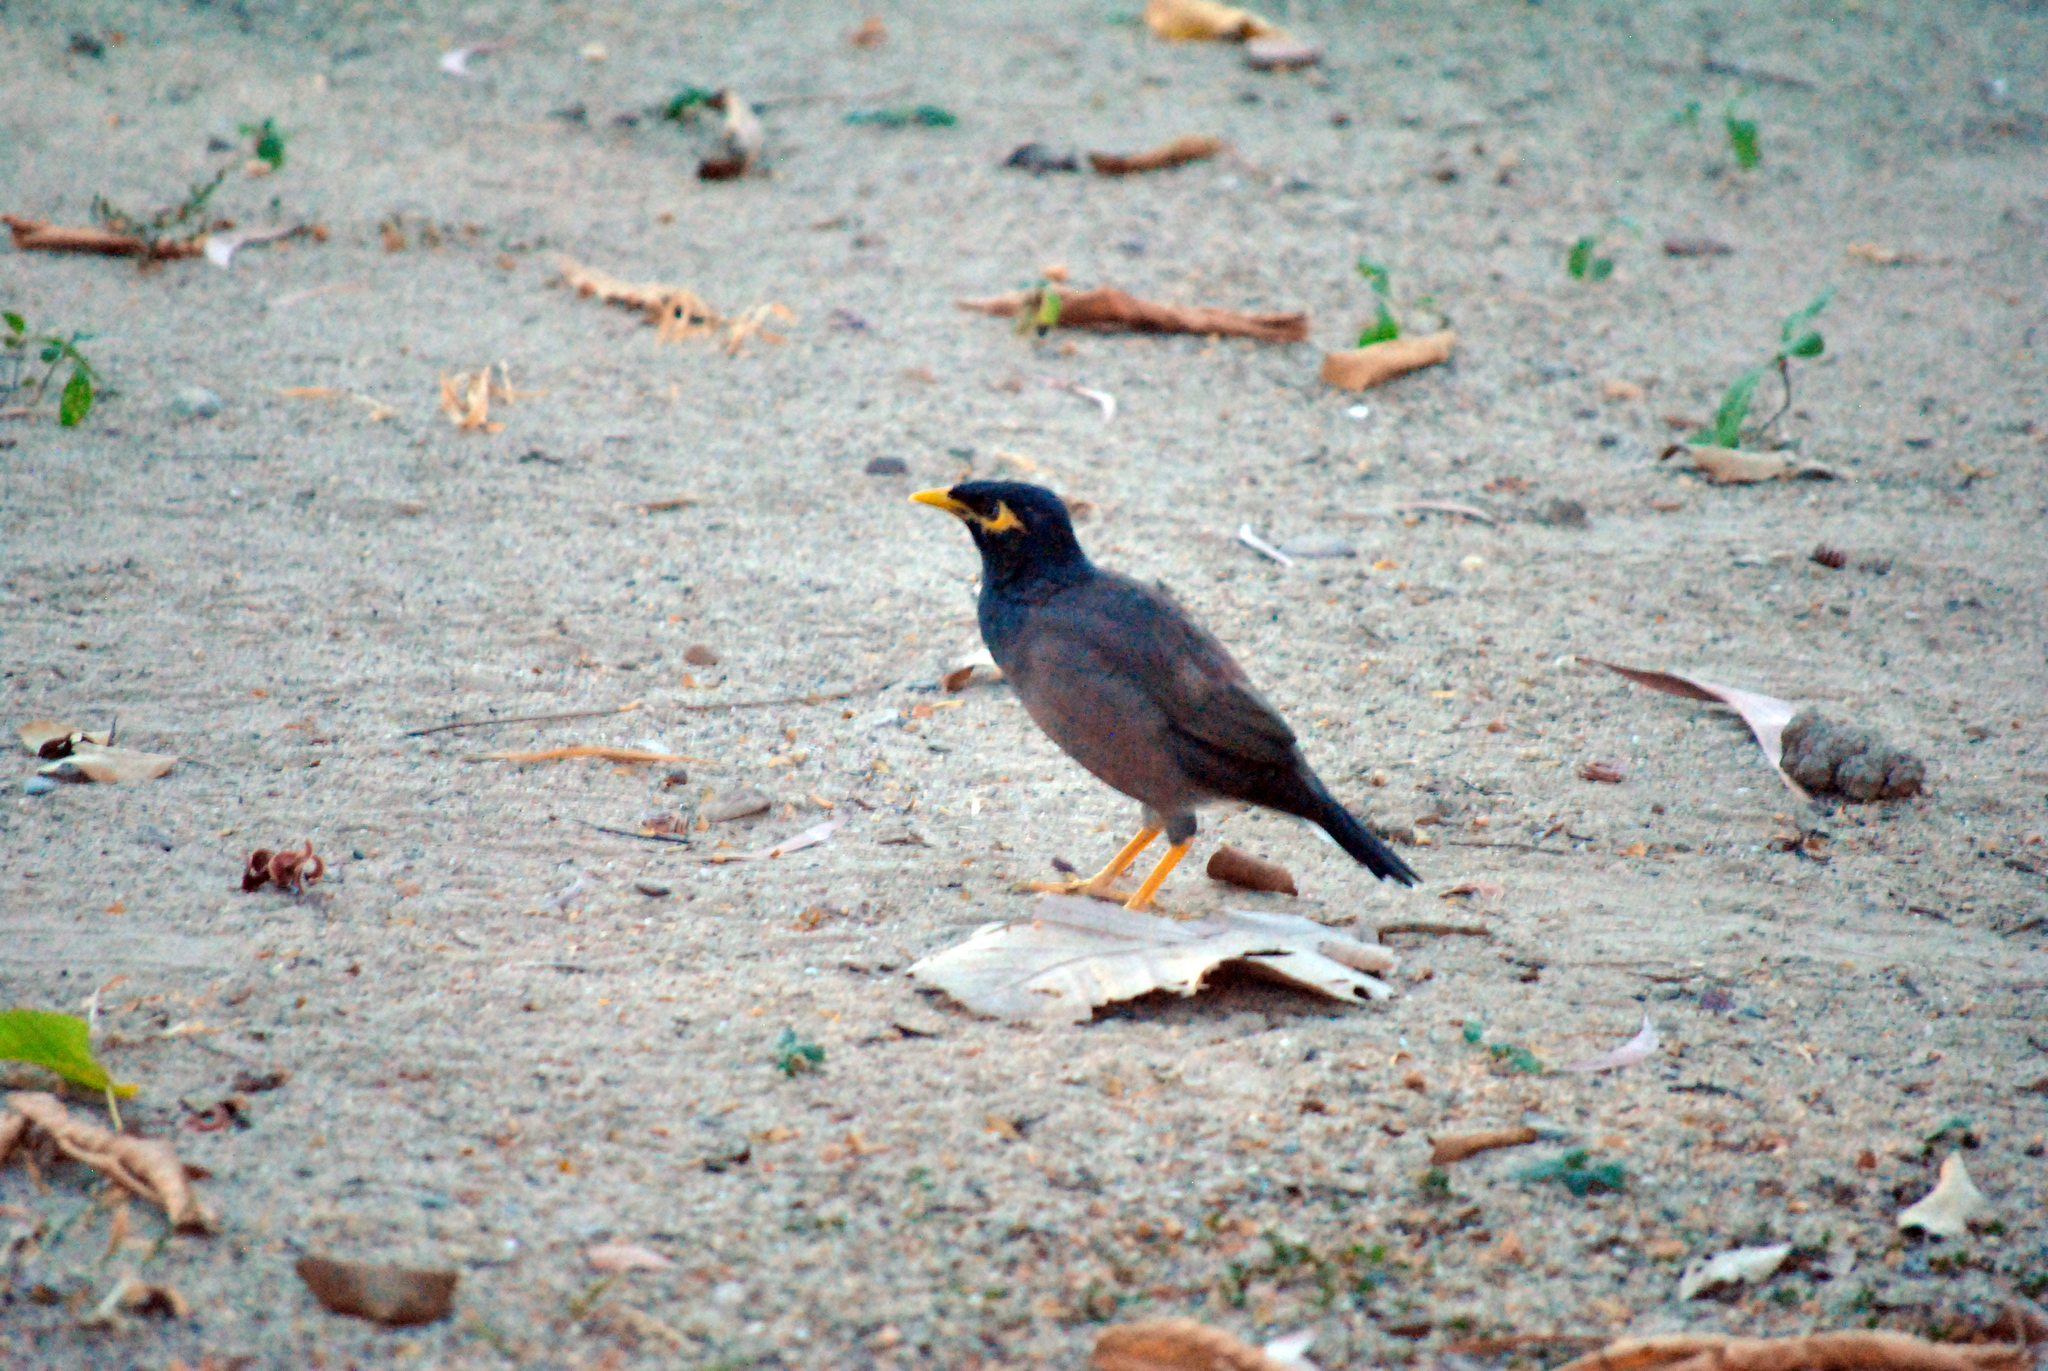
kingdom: Animalia
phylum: Chordata
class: Aves
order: Passeriformes
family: Sturnidae
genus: Acridotheres
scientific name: Acridotheres tristis
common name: Common myna
